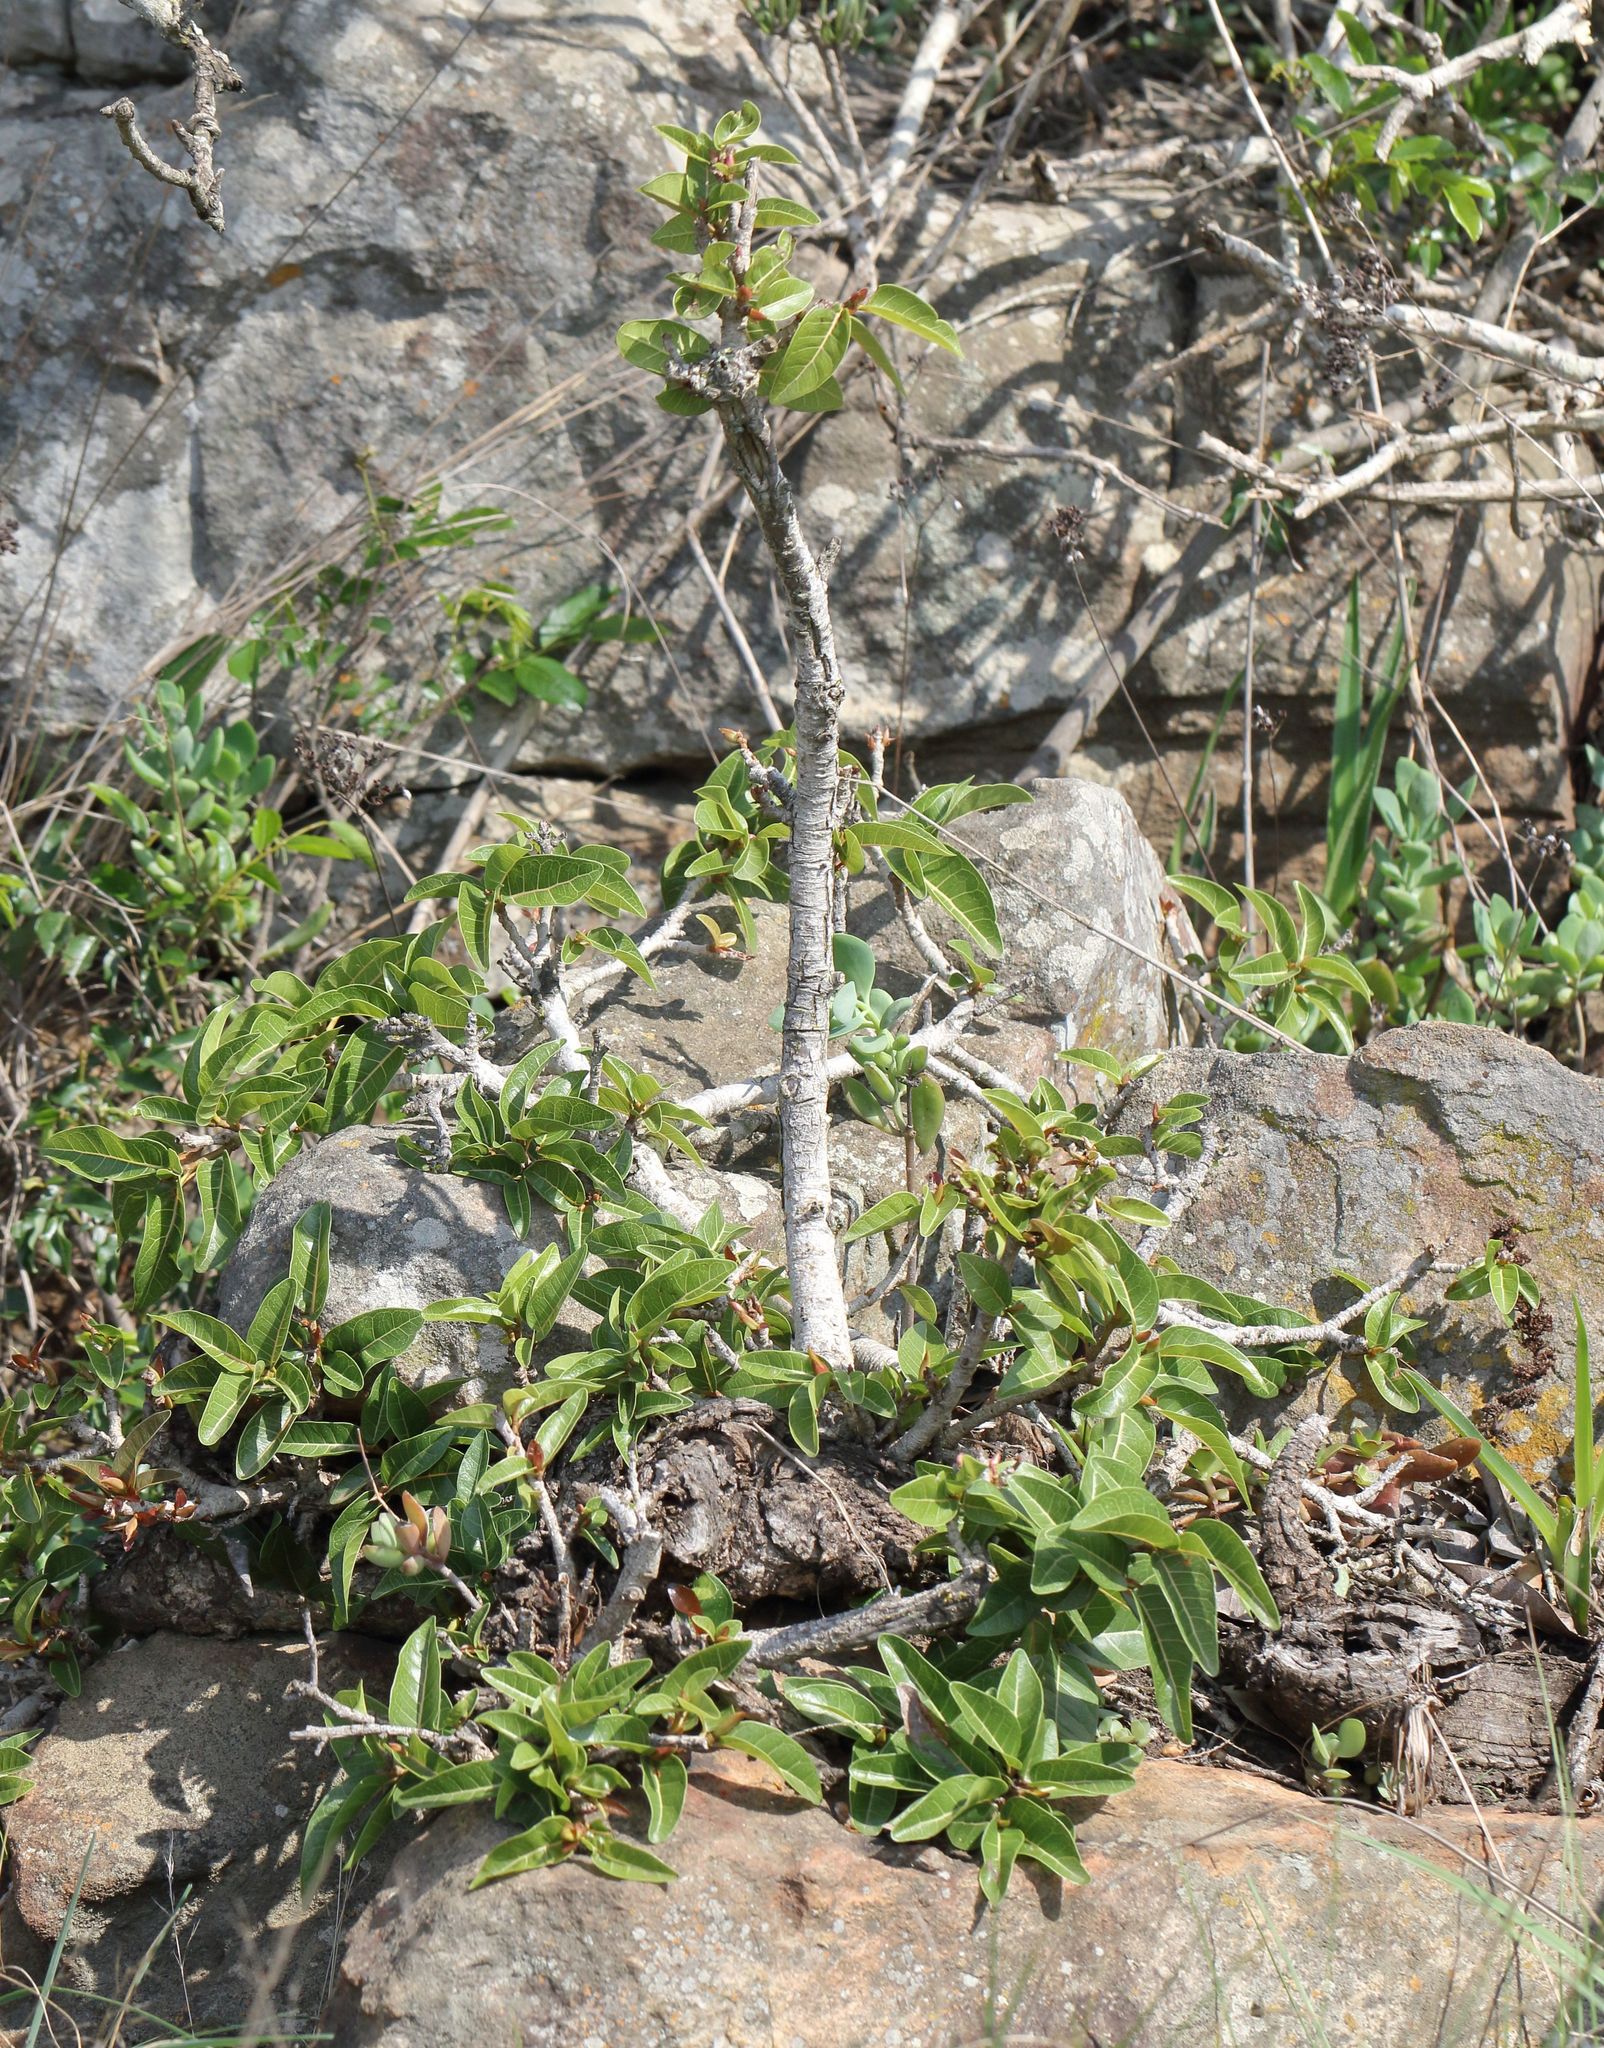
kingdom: Plantae
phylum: Tracheophyta
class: Magnoliopsida
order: Rosales
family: Moraceae
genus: Ficus
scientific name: Ficus ingens
